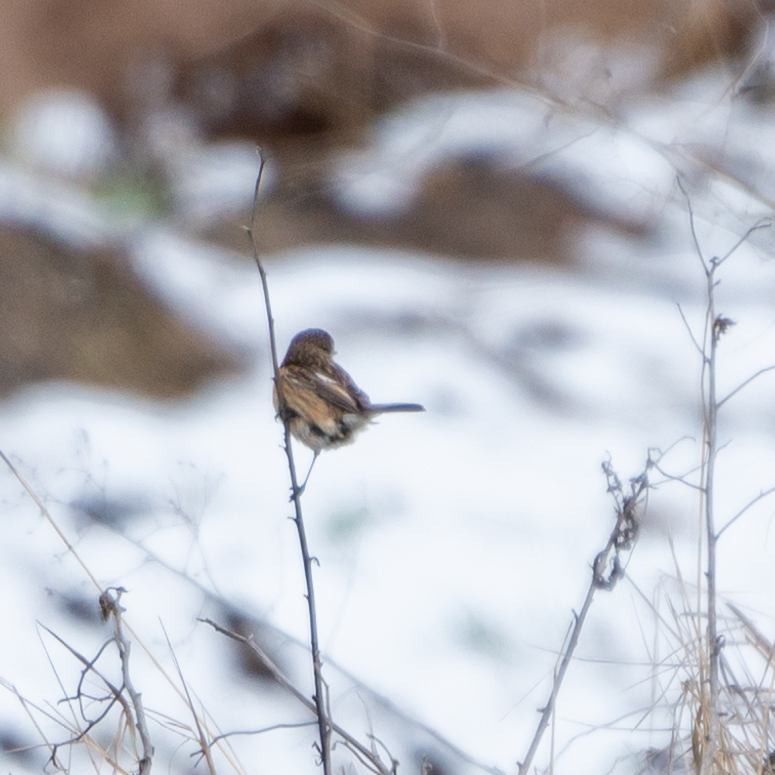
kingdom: Animalia
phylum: Chordata
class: Aves
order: Passeriformes
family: Muscicapidae
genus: Saxicola
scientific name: Saxicola rubicola
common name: European stonechat
